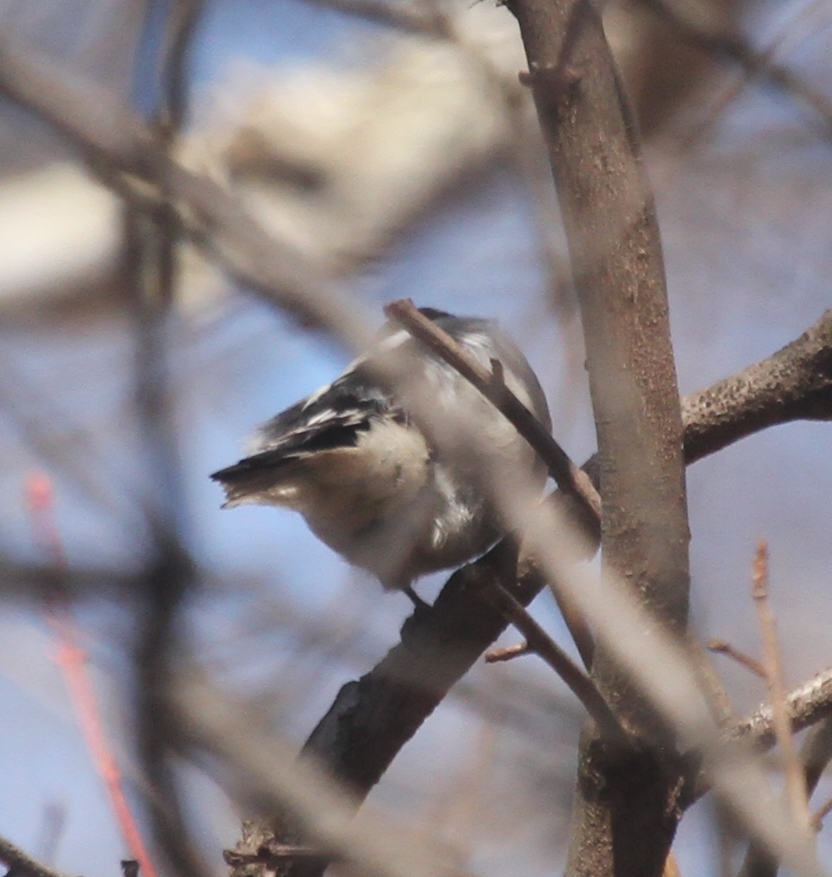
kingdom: Animalia
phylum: Chordata
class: Aves
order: Piciformes
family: Picidae
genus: Dryobates
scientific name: Dryobates pubescens
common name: Downy woodpecker
